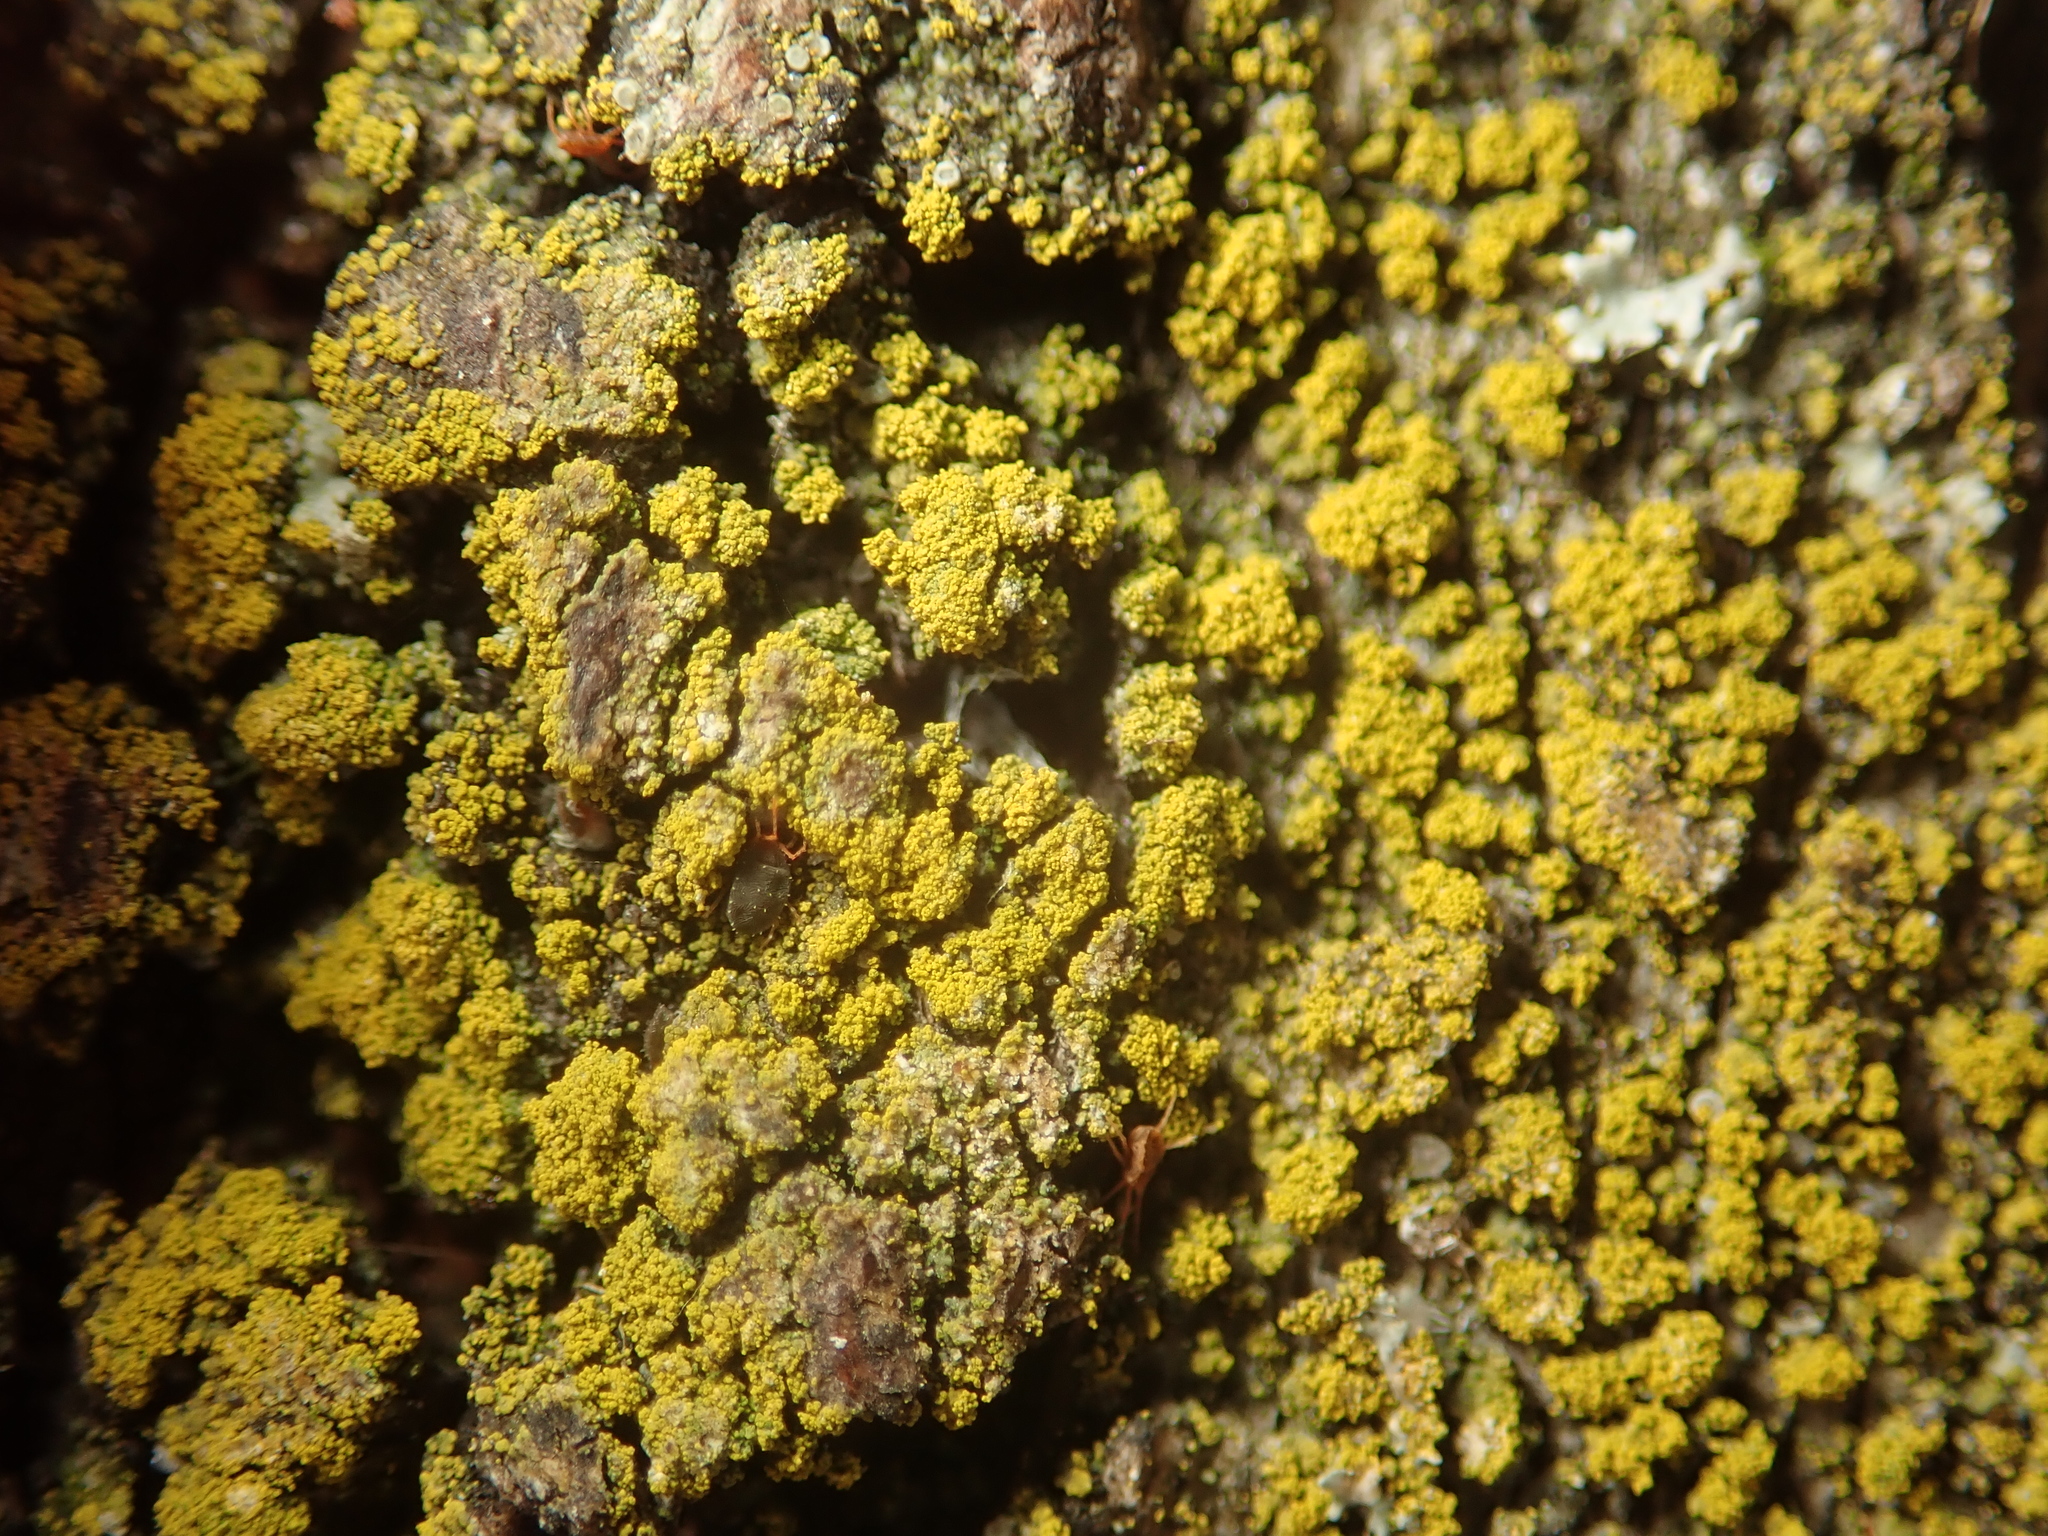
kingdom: Fungi
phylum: Ascomycota
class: Candelariomycetes
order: Candelariales
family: Candelariaceae
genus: Candelariella
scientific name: Candelariella xanthostigma
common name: Granular goldspeck lichen
